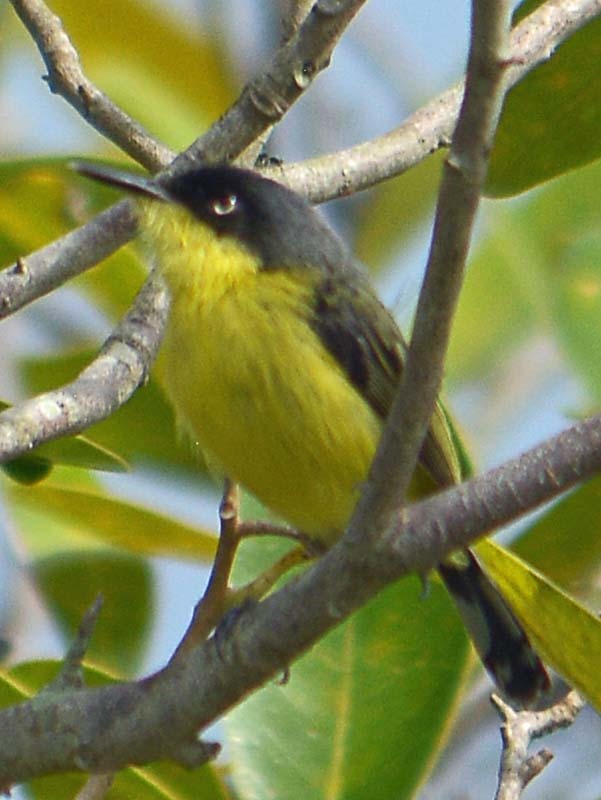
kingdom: Animalia
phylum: Chordata
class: Aves
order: Passeriformes
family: Tyrannidae
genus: Todirostrum
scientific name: Todirostrum cinereum
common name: Common tody-flycatcher
